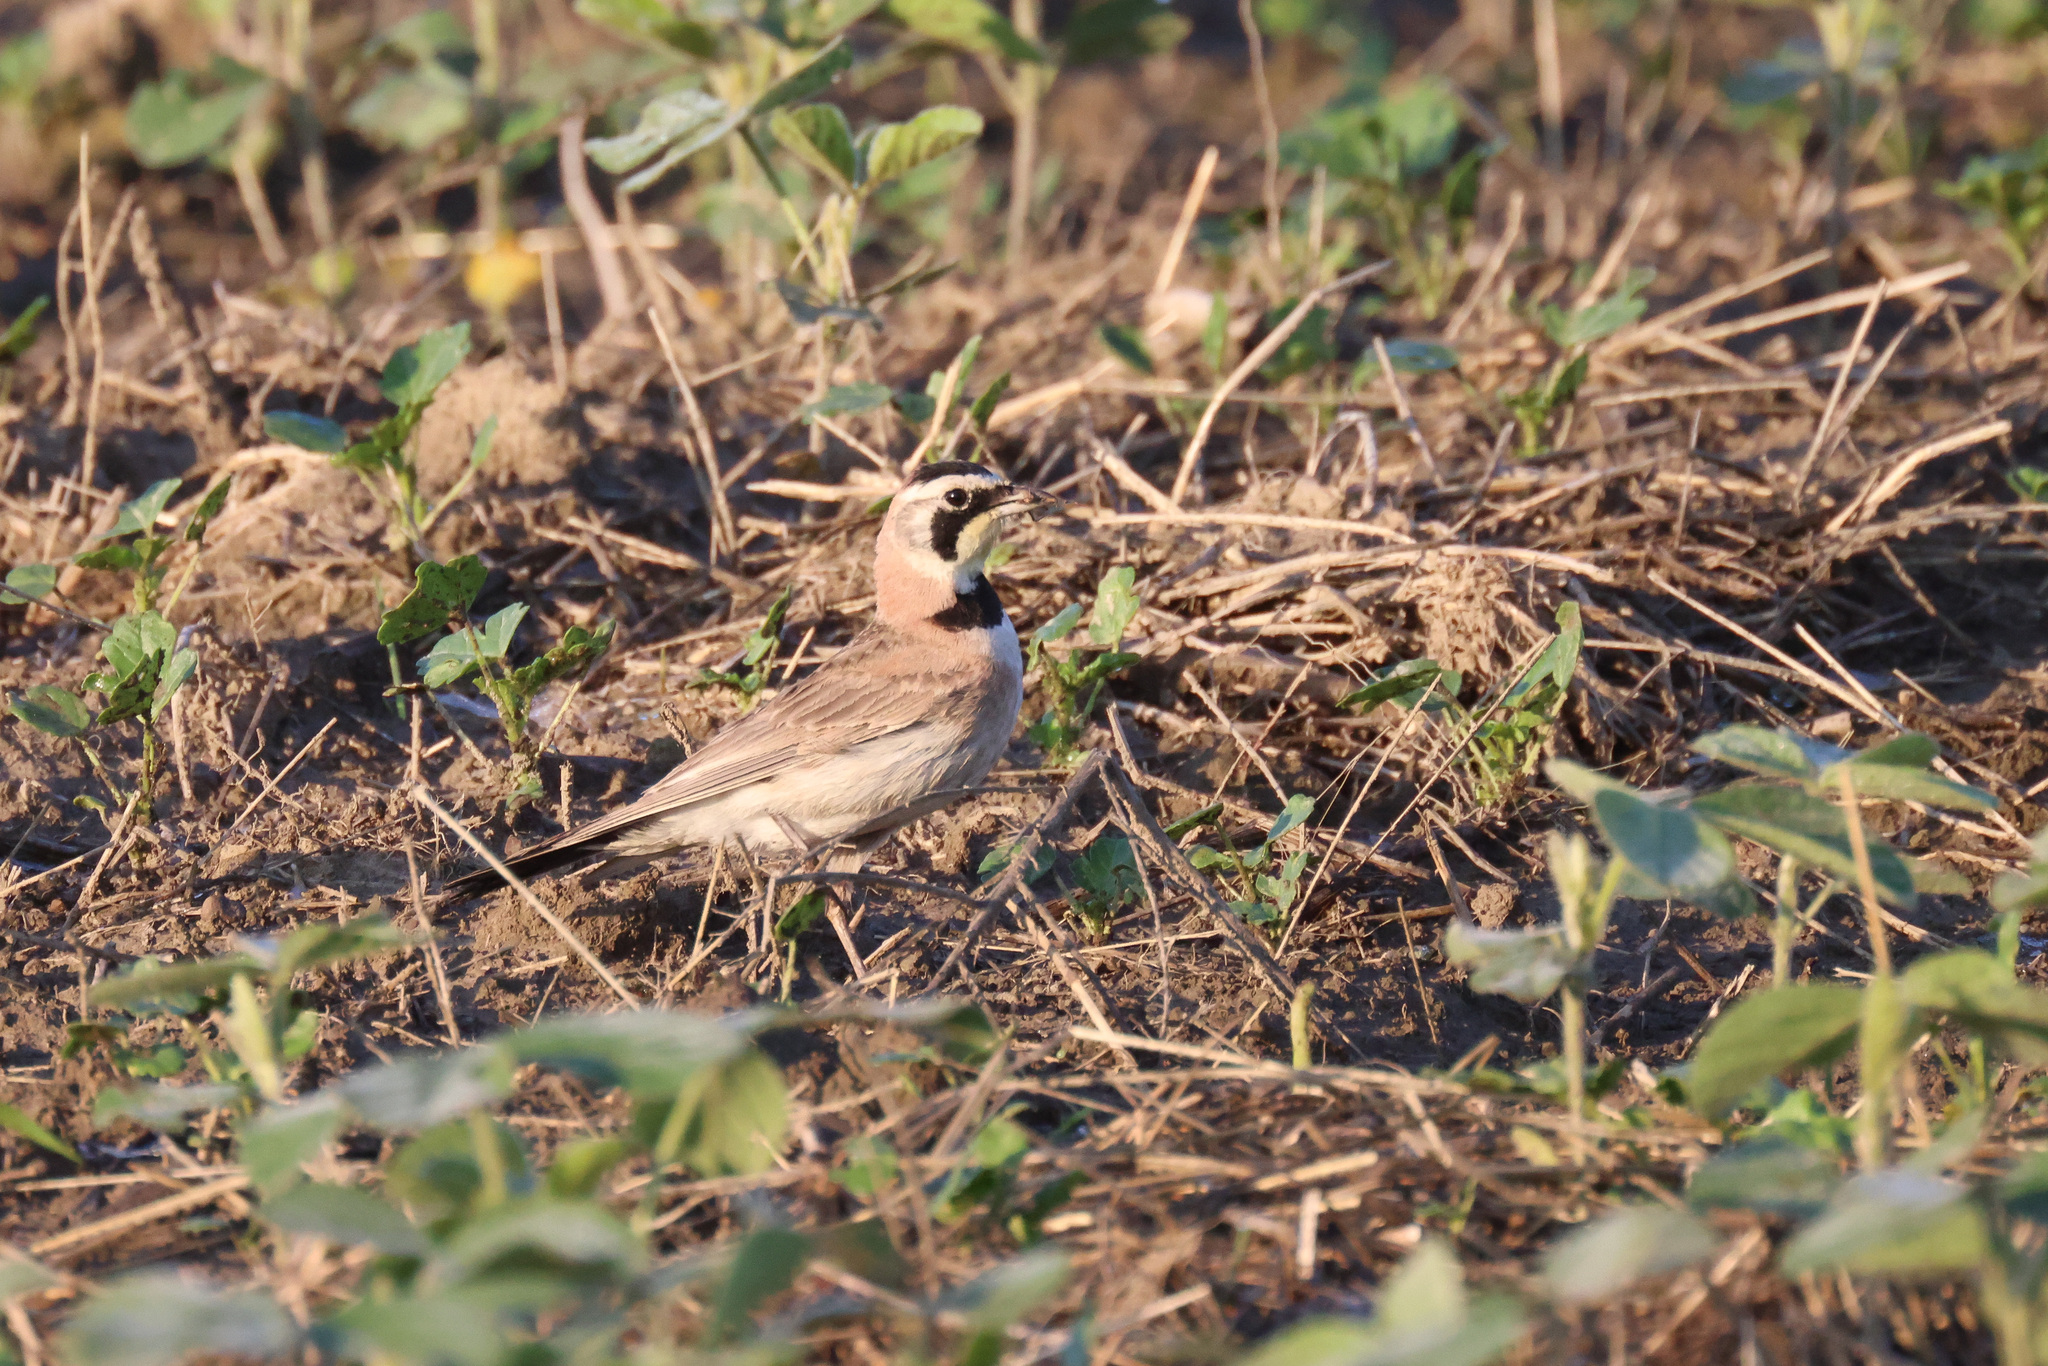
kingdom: Animalia
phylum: Chordata
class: Aves
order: Passeriformes
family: Alaudidae
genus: Eremophila
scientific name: Eremophila alpestris
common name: Horned lark
